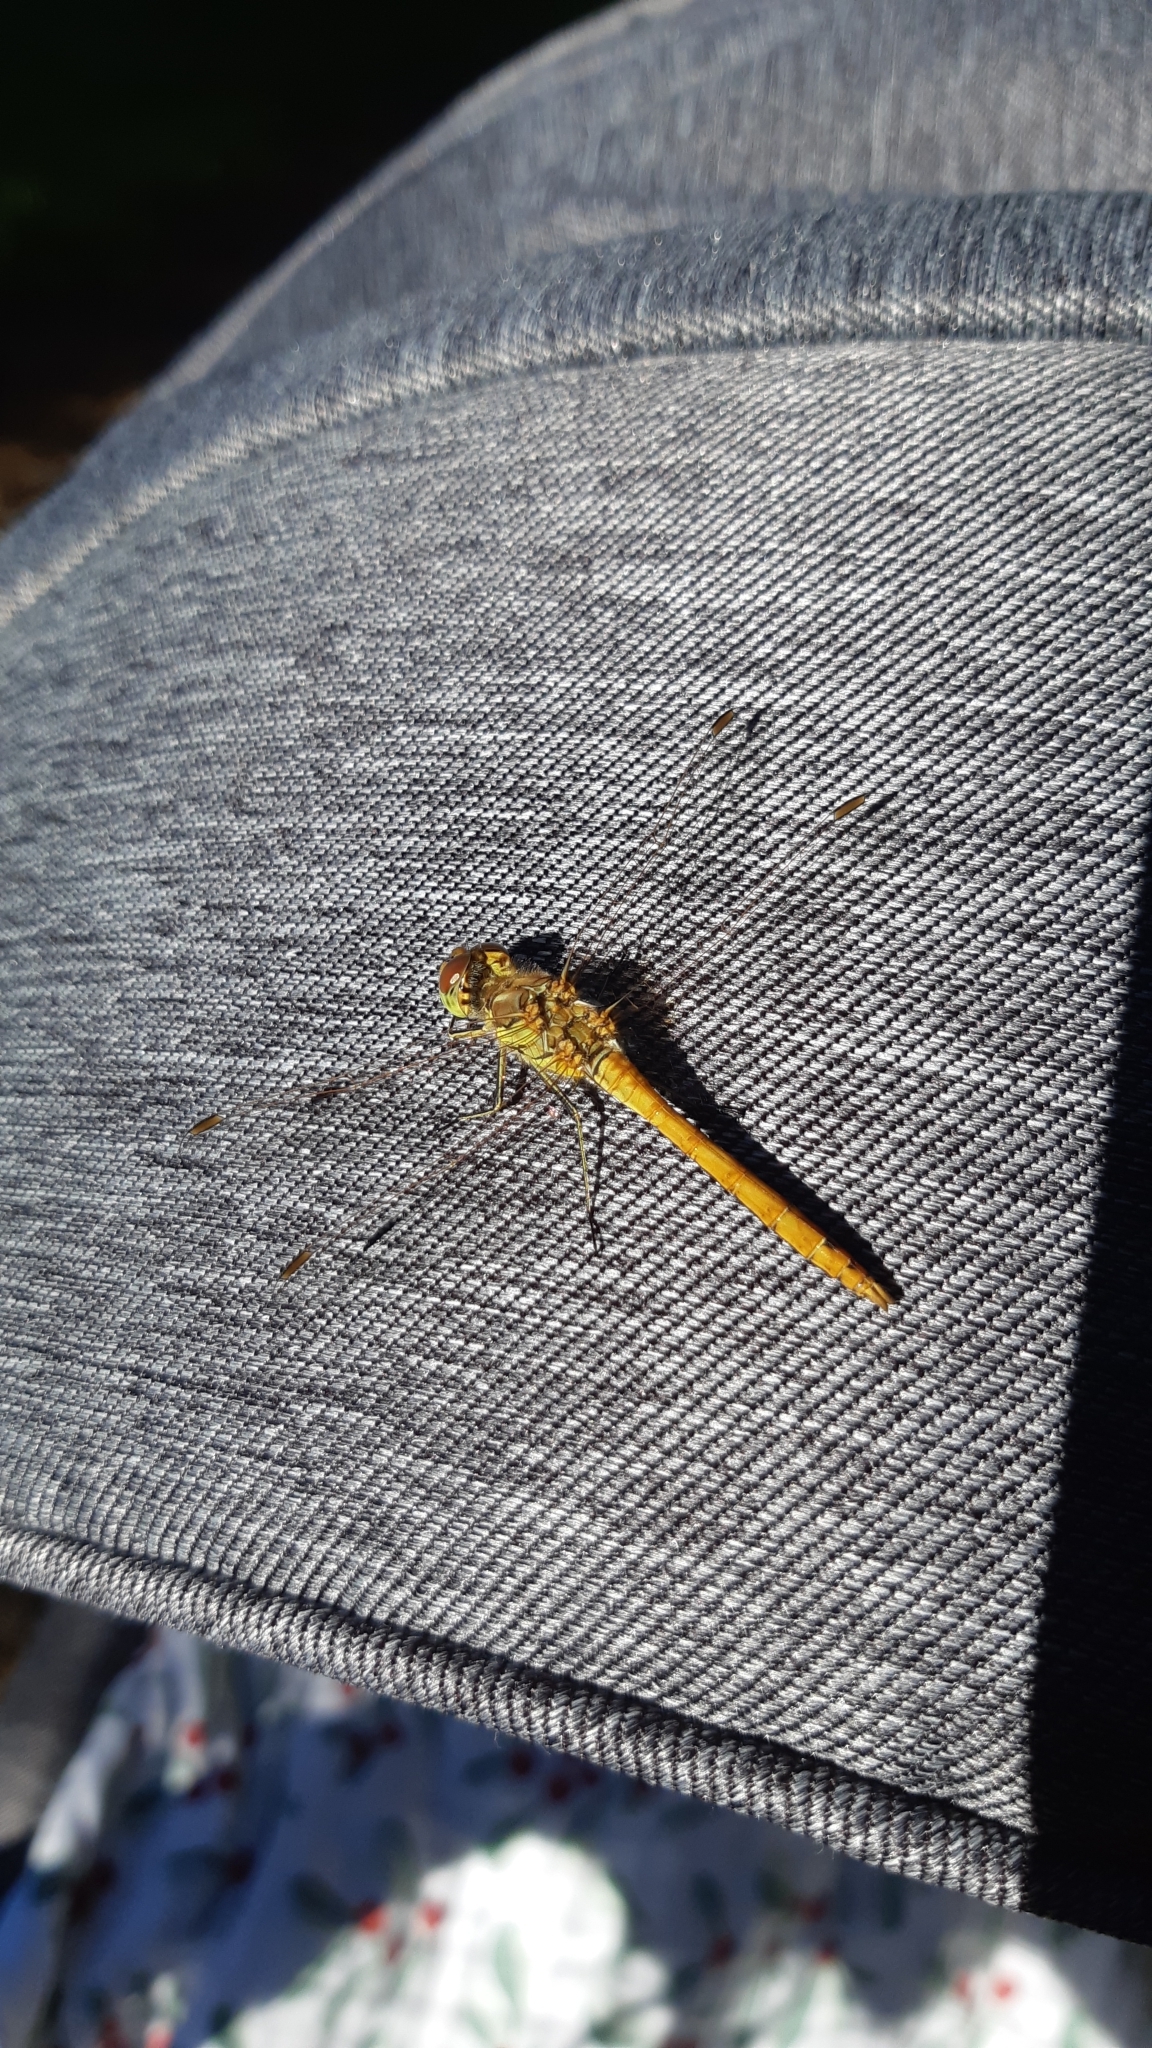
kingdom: Animalia
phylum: Arthropoda
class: Insecta
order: Odonata
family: Libellulidae
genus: Sympetrum
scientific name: Sympetrum vulgatum
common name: Vagrant darter
